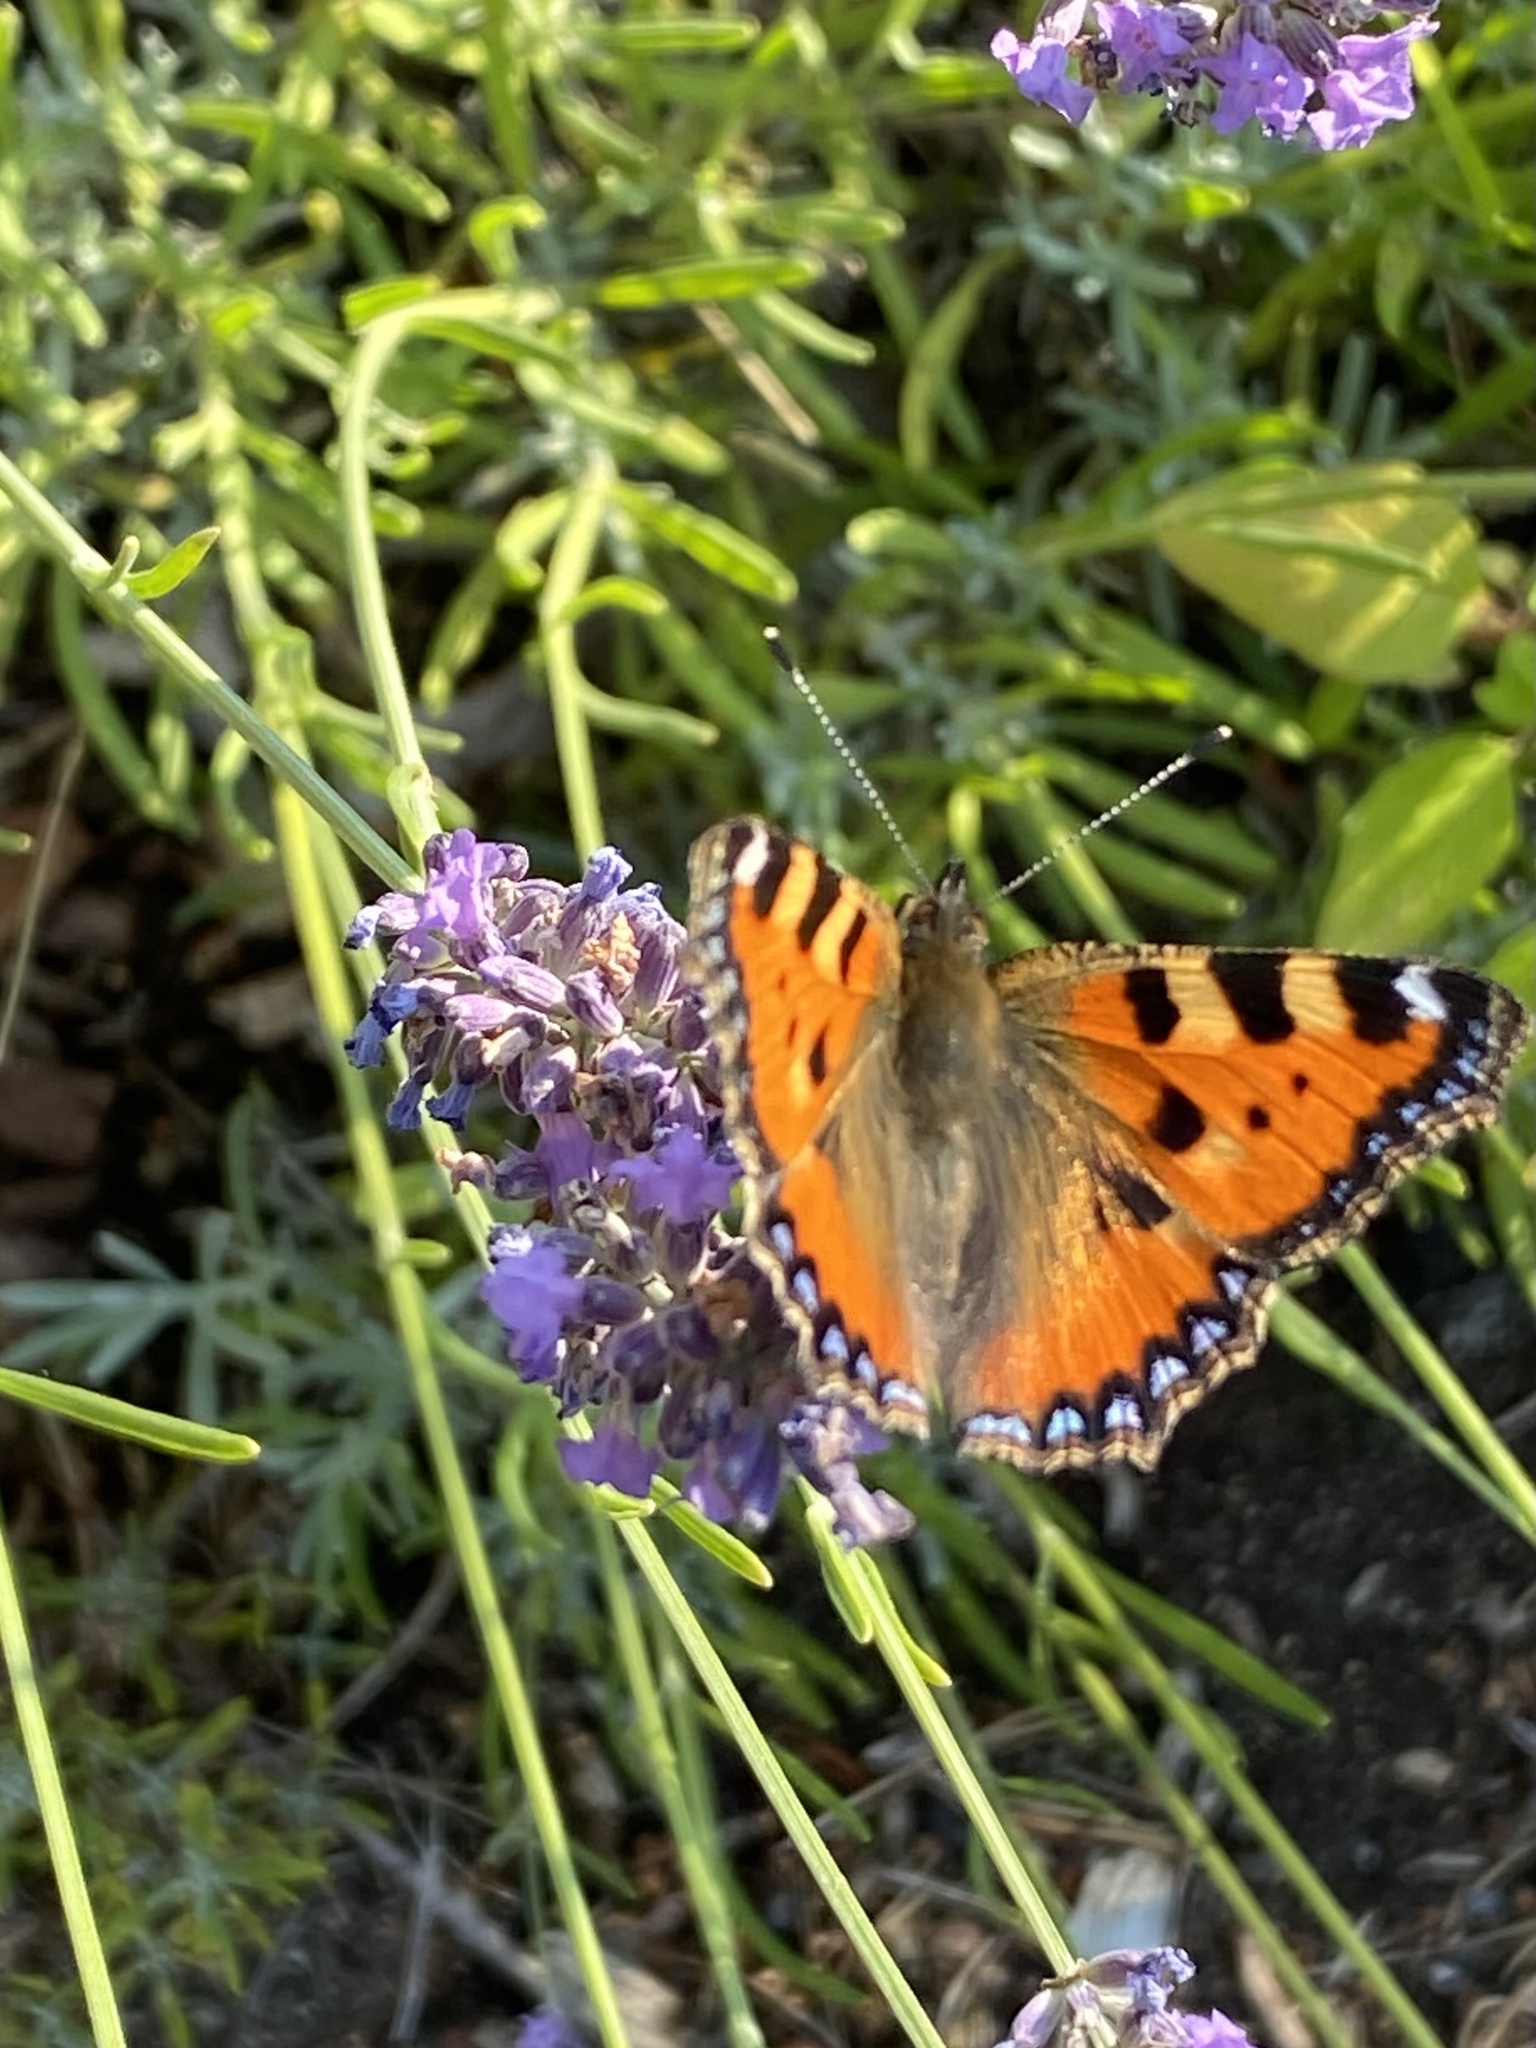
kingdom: Animalia
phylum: Arthropoda
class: Insecta
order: Lepidoptera
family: Nymphalidae
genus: Aglais
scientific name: Aglais urticae
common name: Small tortoiseshell
